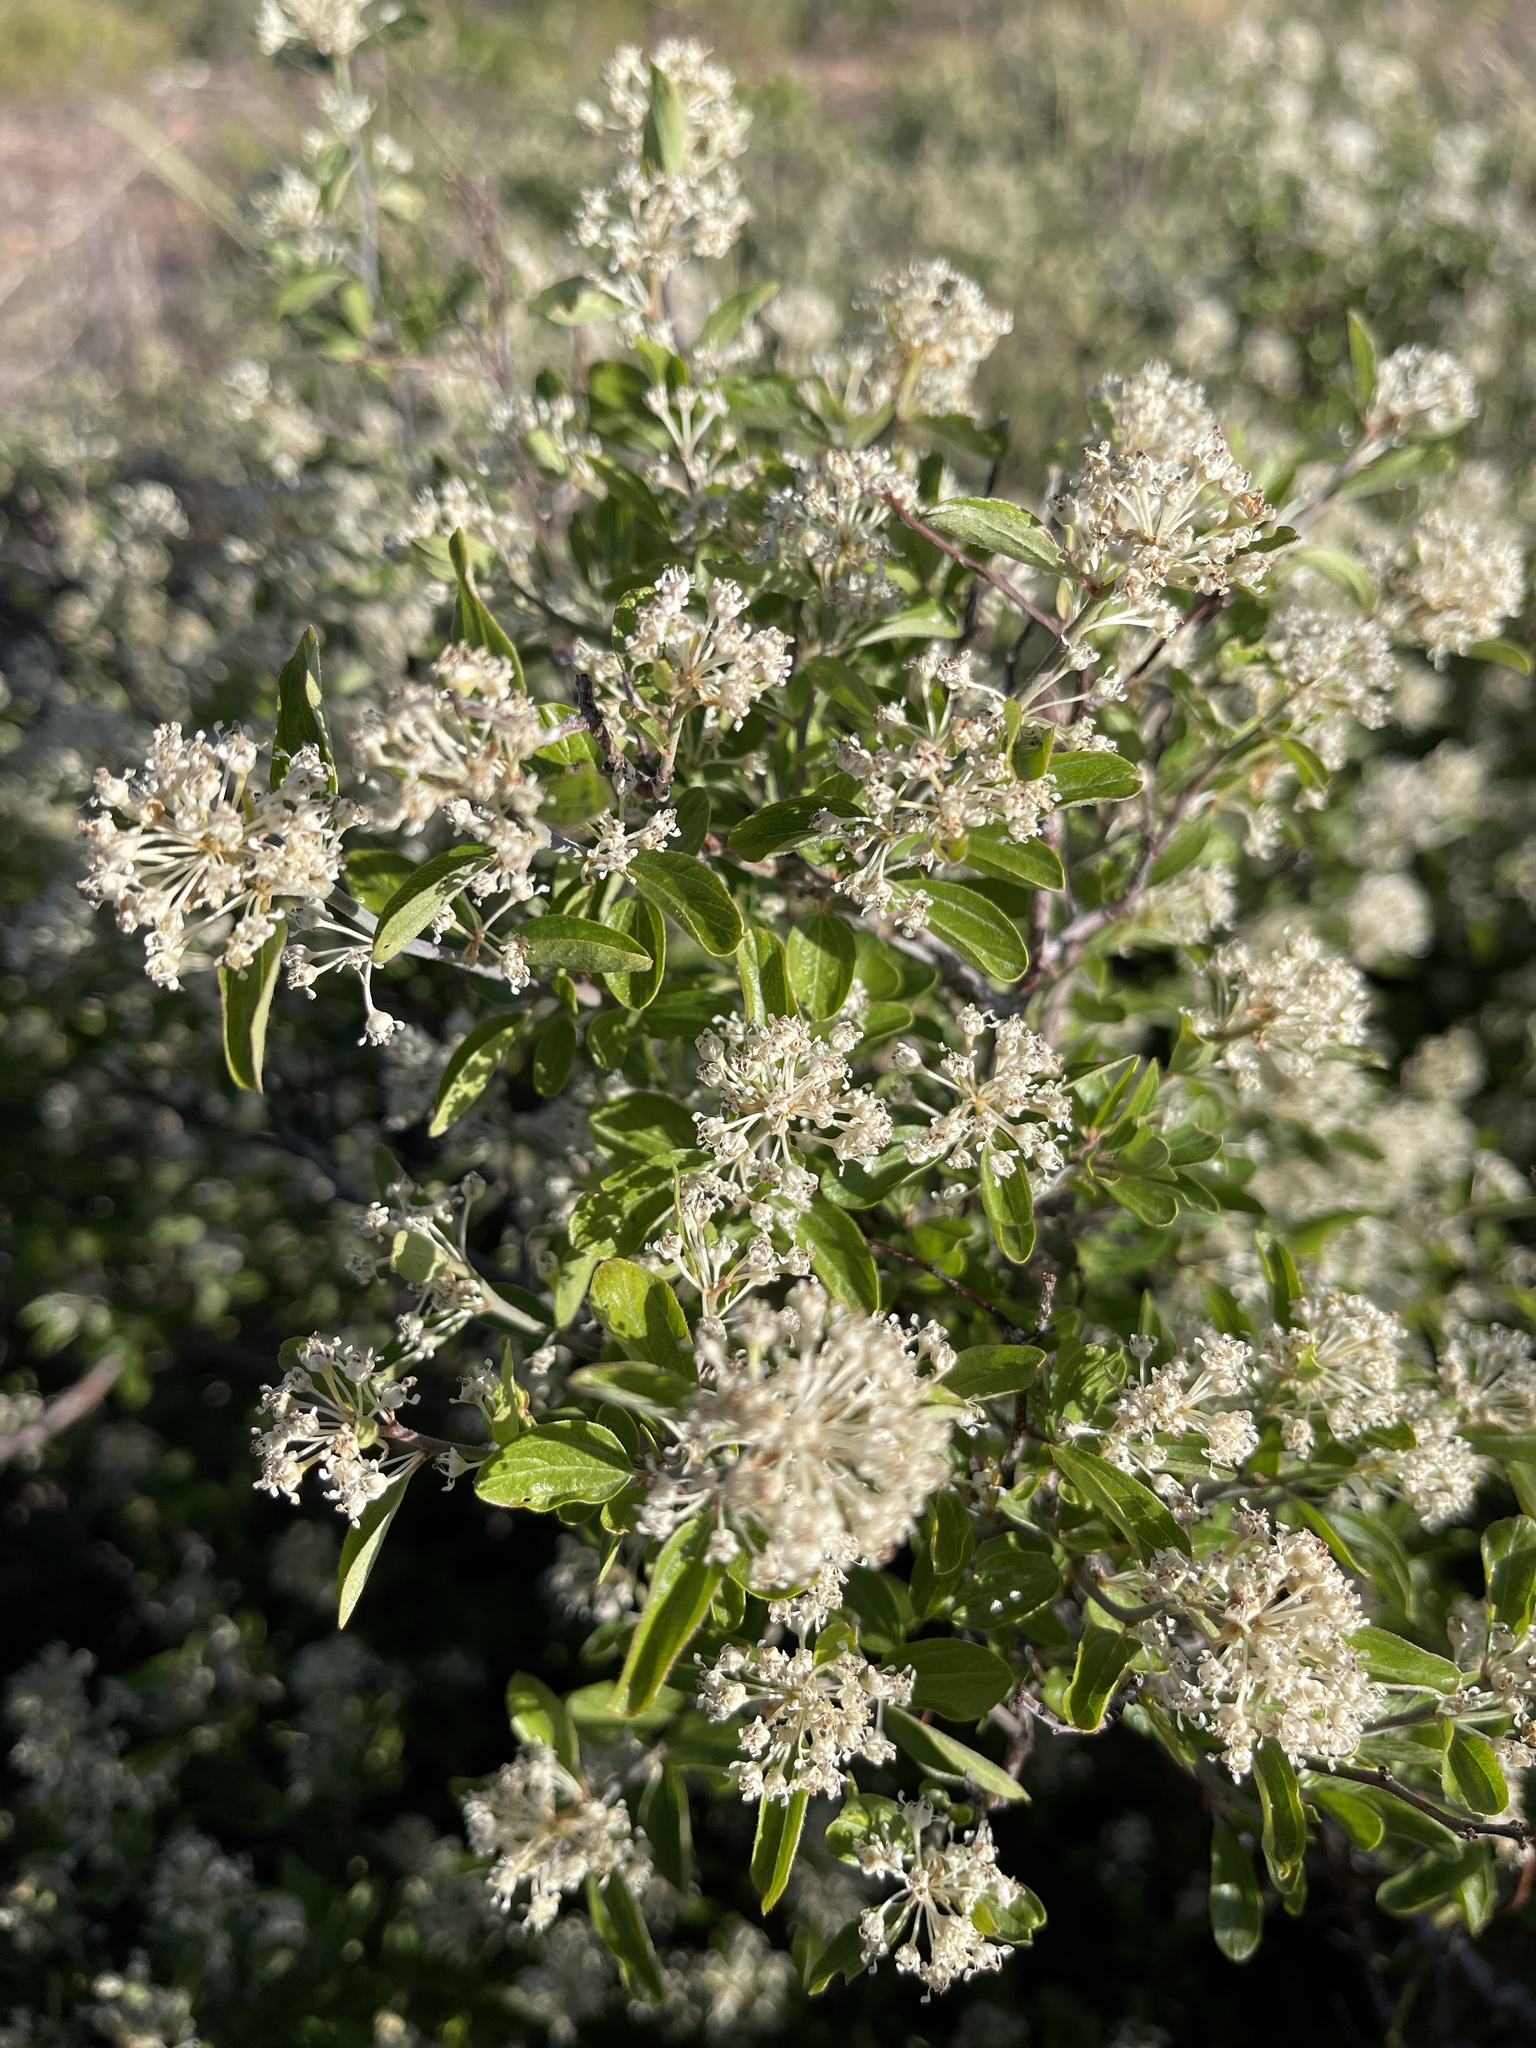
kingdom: Plantae
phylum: Tracheophyta
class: Magnoliopsida
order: Rosales
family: Rhamnaceae
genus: Ceanothus
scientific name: Ceanothus fendleri
